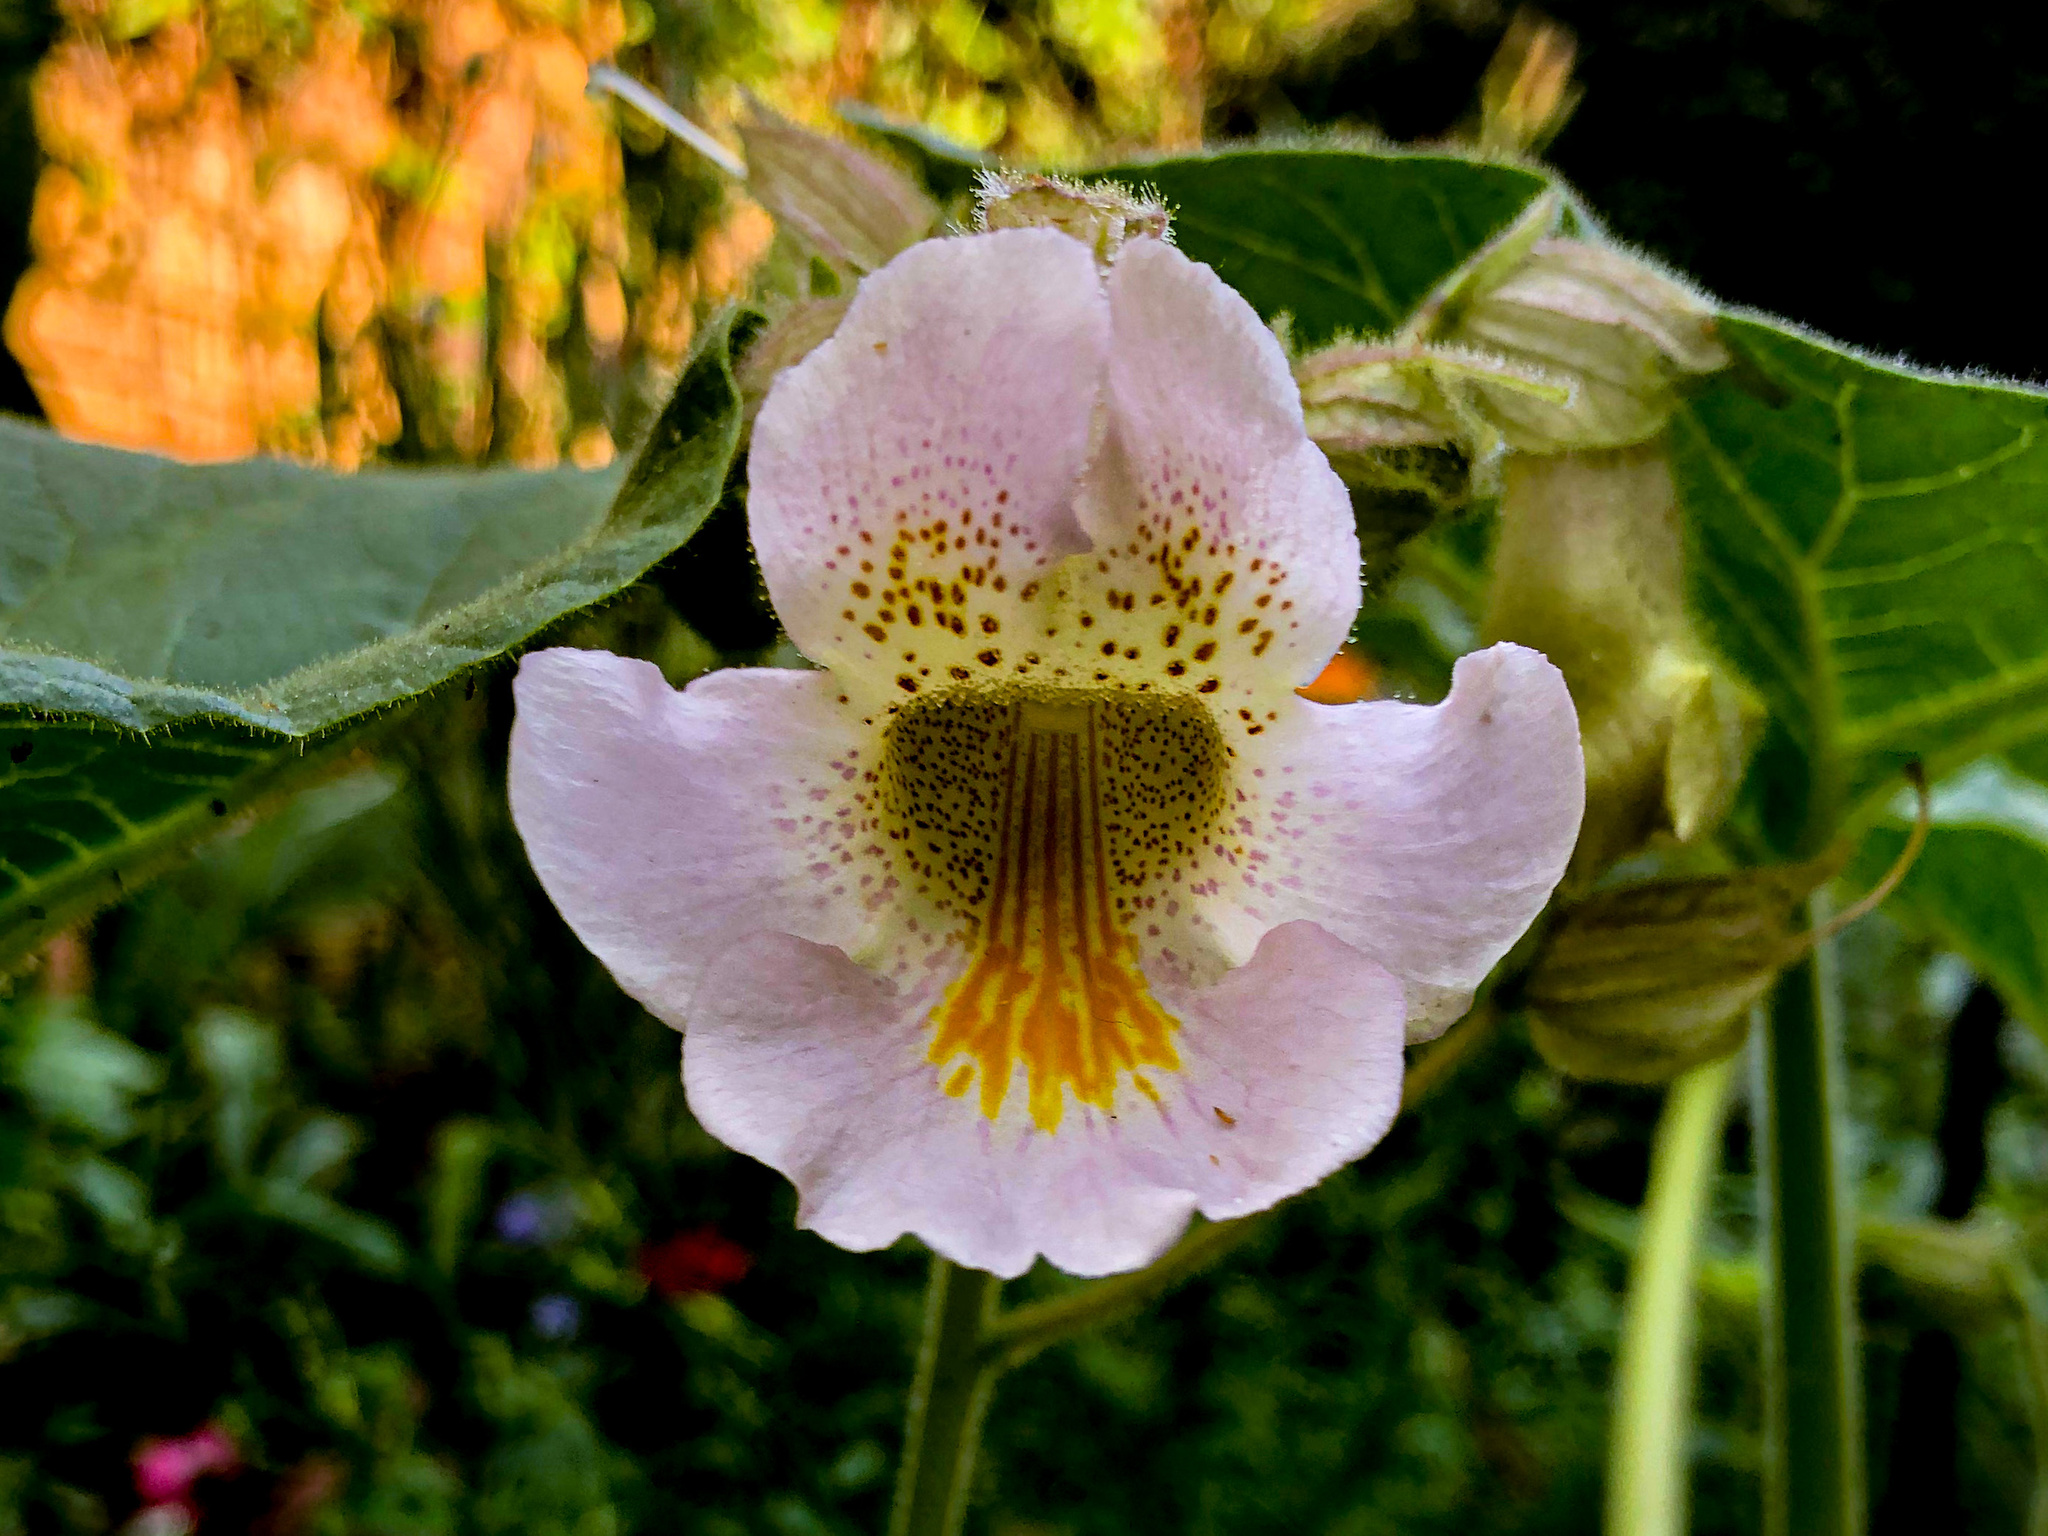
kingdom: Plantae
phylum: Tracheophyta
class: Magnoliopsida
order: Lamiales
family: Martyniaceae
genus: Proboscidea
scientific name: Proboscidea louisianica
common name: Elephant tusks
